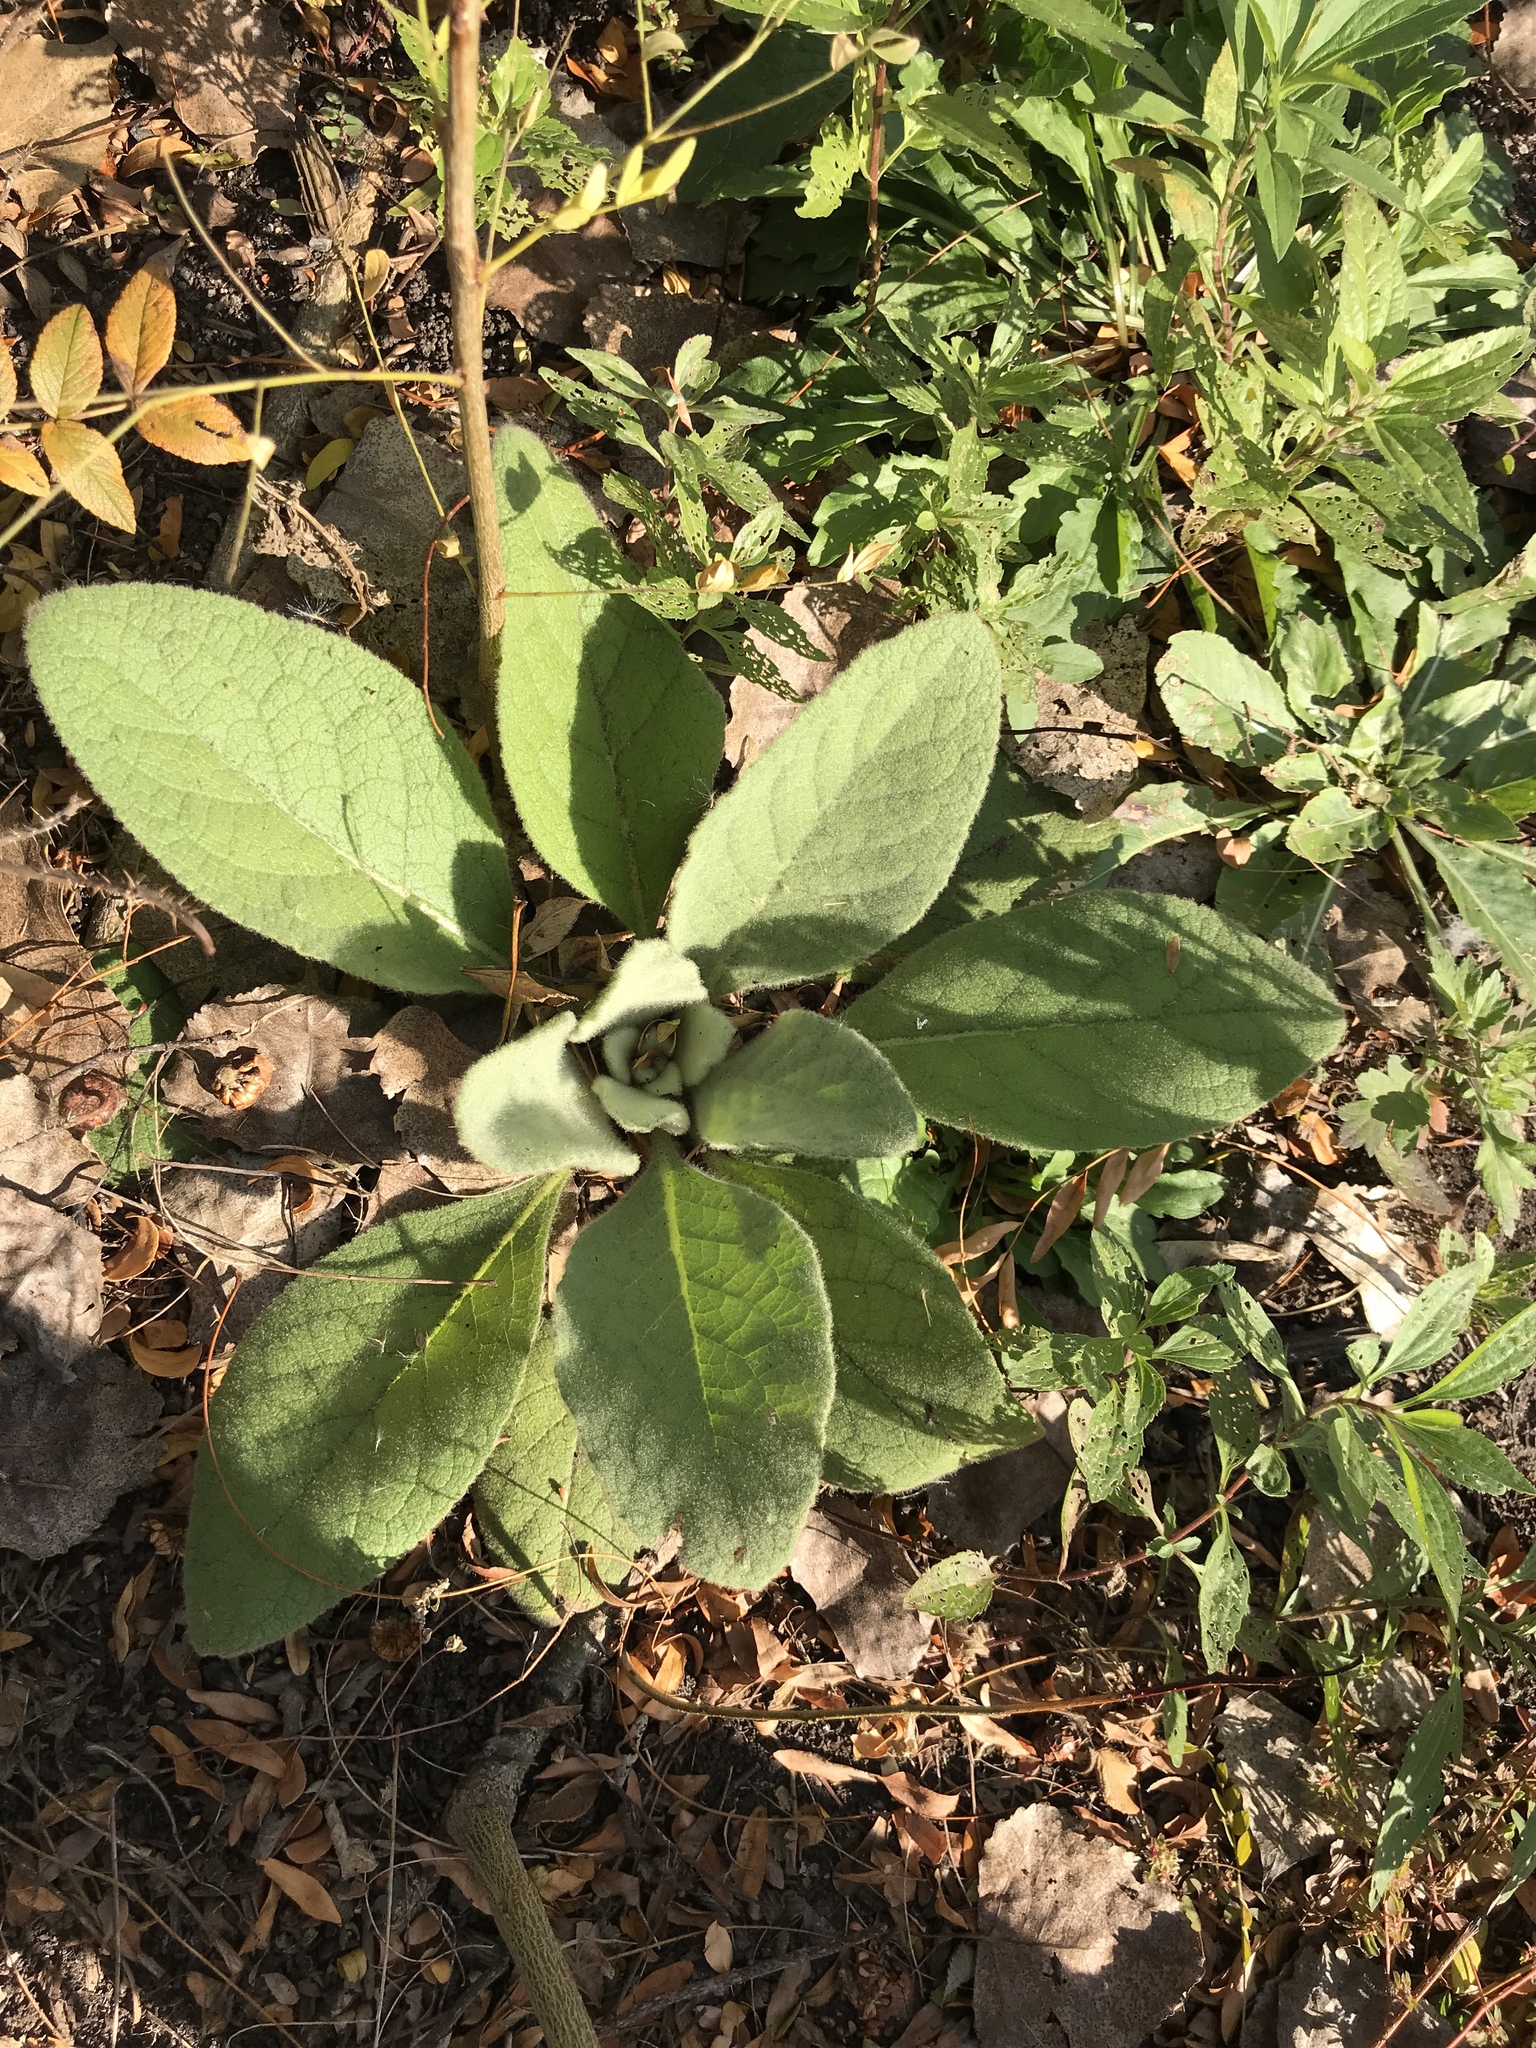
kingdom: Plantae
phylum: Tracheophyta
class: Magnoliopsida
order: Lamiales
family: Scrophulariaceae
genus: Verbascum
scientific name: Verbascum thapsus
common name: Common mullein
